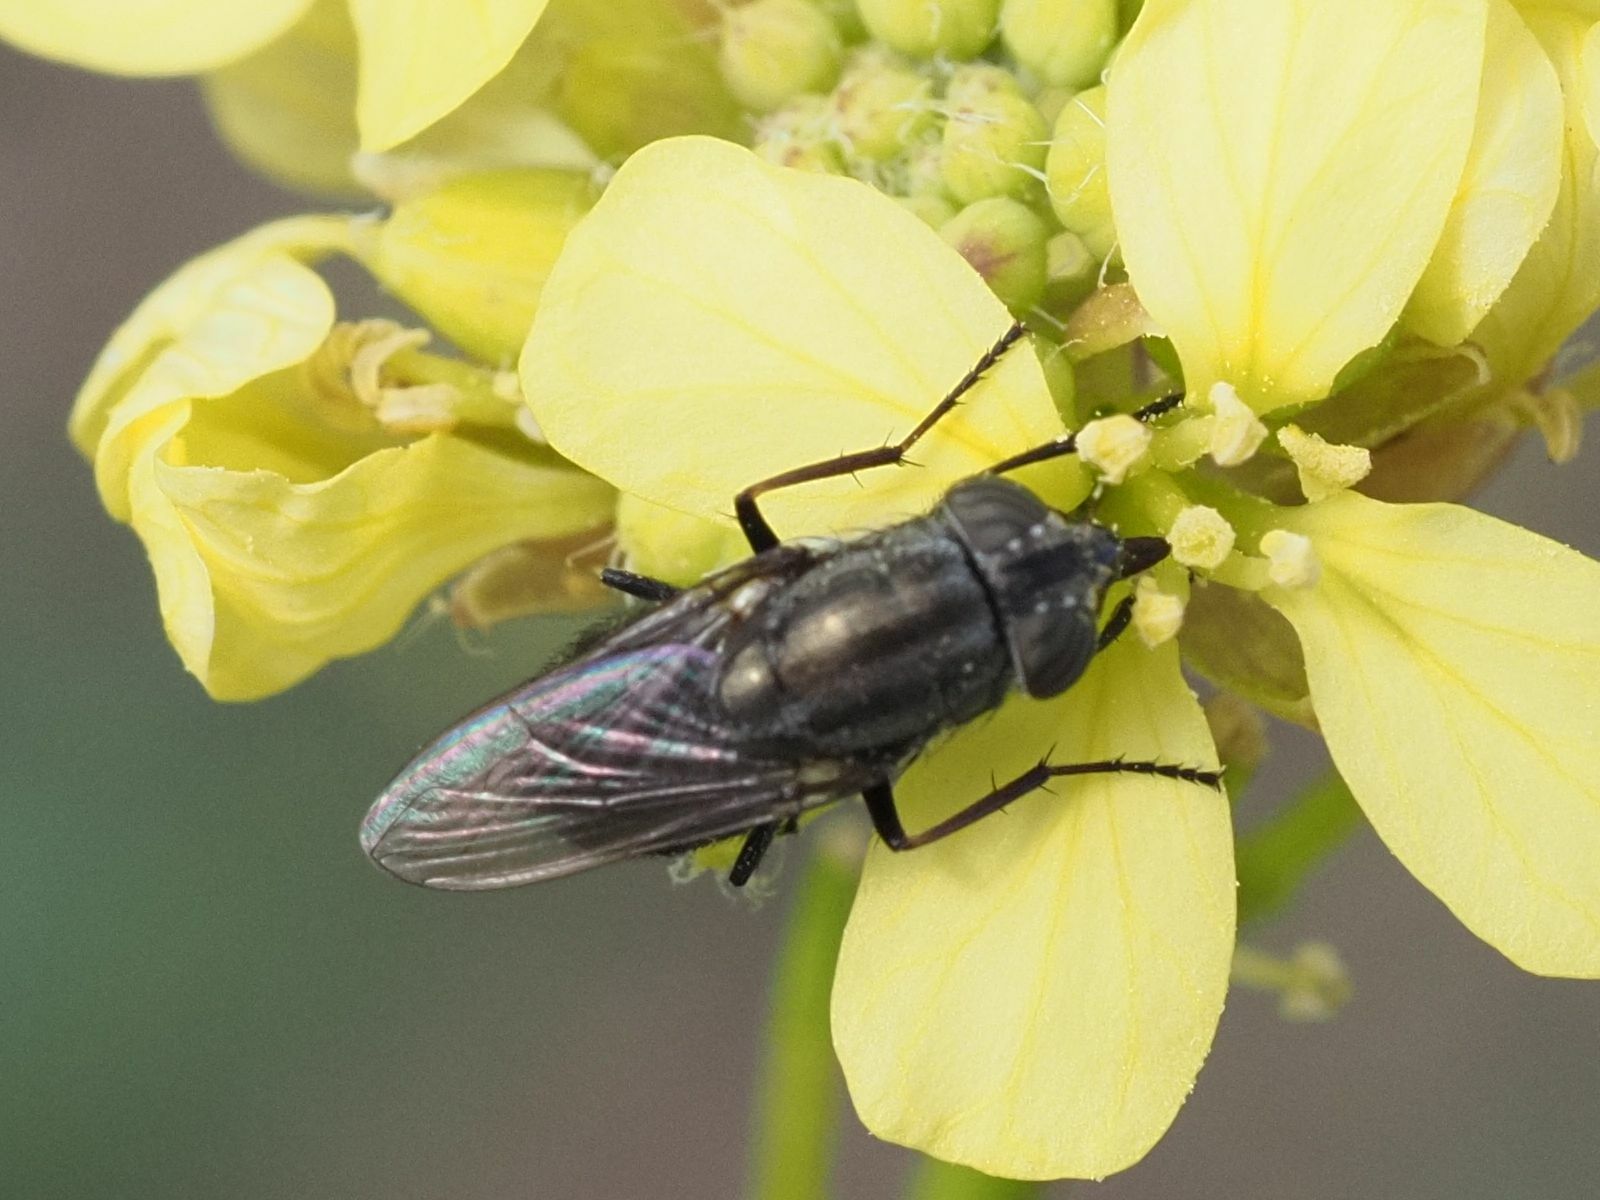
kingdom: Animalia
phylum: Arthropoda
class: Insecta
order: Diptera
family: Calliphoridae
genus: Stomorhina
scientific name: Stomorhina lunata
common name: Locust blowfly
